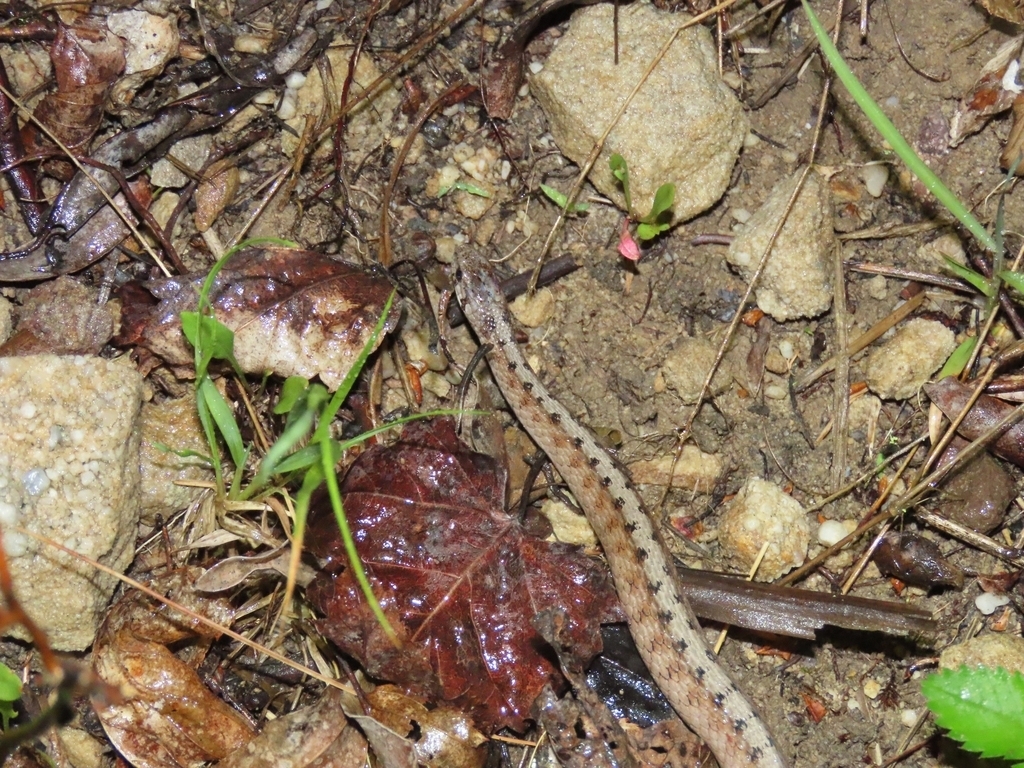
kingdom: Animalia
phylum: Chordata
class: Squamata
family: Colubridae
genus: Storeria
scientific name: Storeria dekayi
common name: (dekay’s) brown snake
